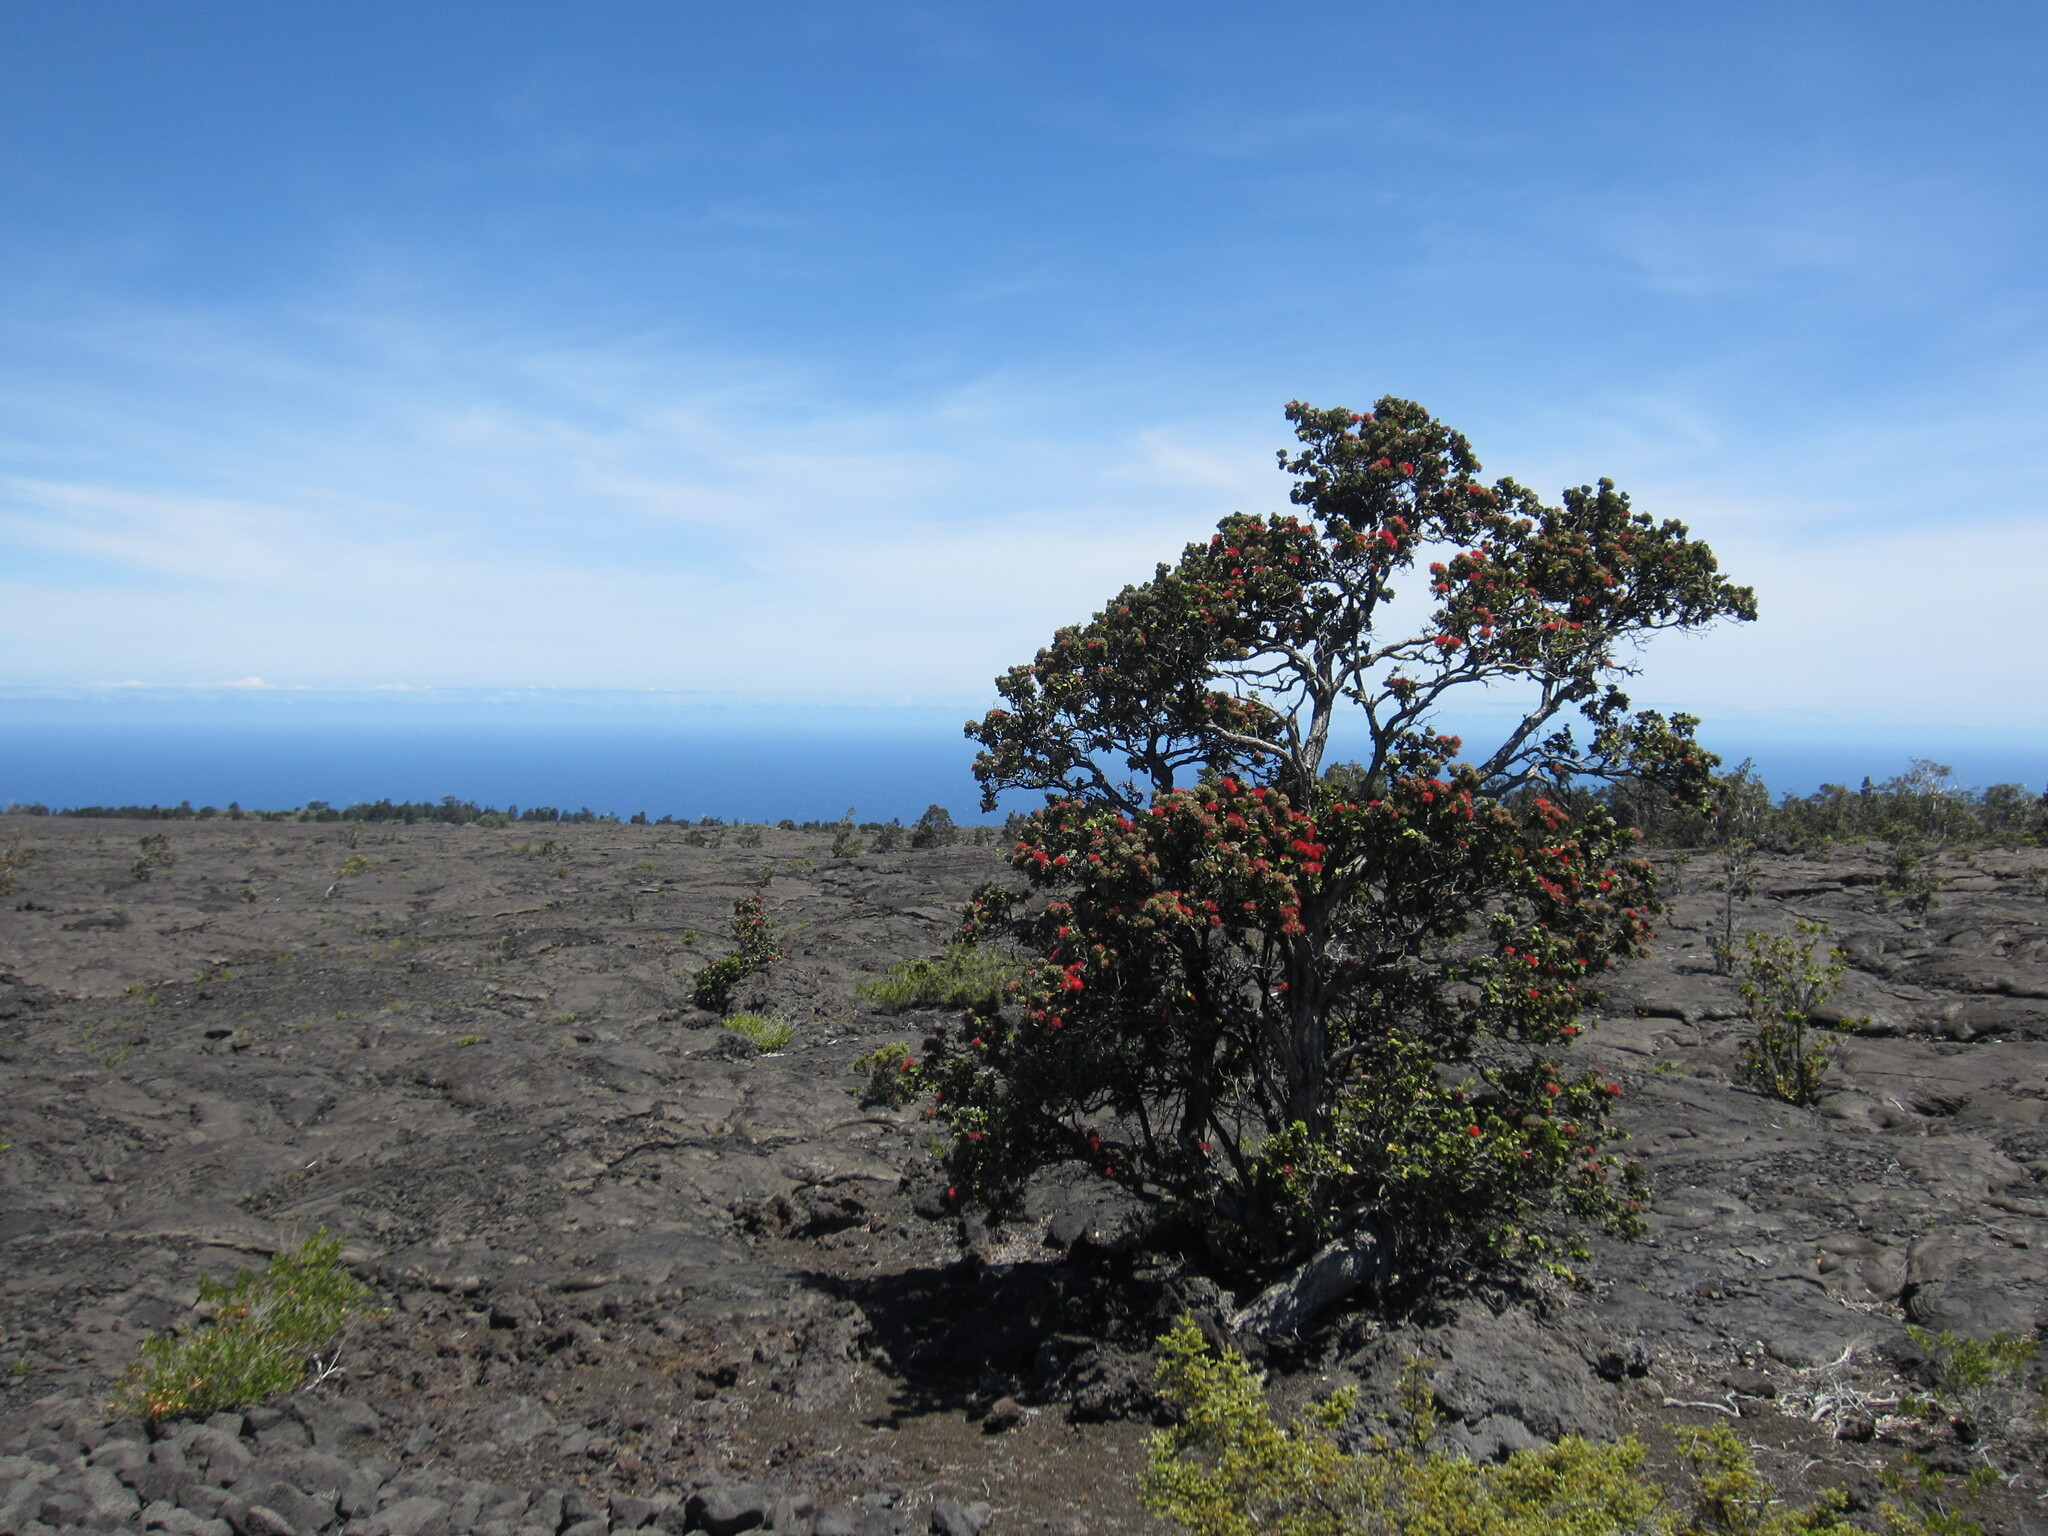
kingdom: Plantae
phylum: Tracheophyta
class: Magnoliopsida
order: Myrtales
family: Myrtaceae
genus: Metrosideros
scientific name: Metrosideros polymorpha
